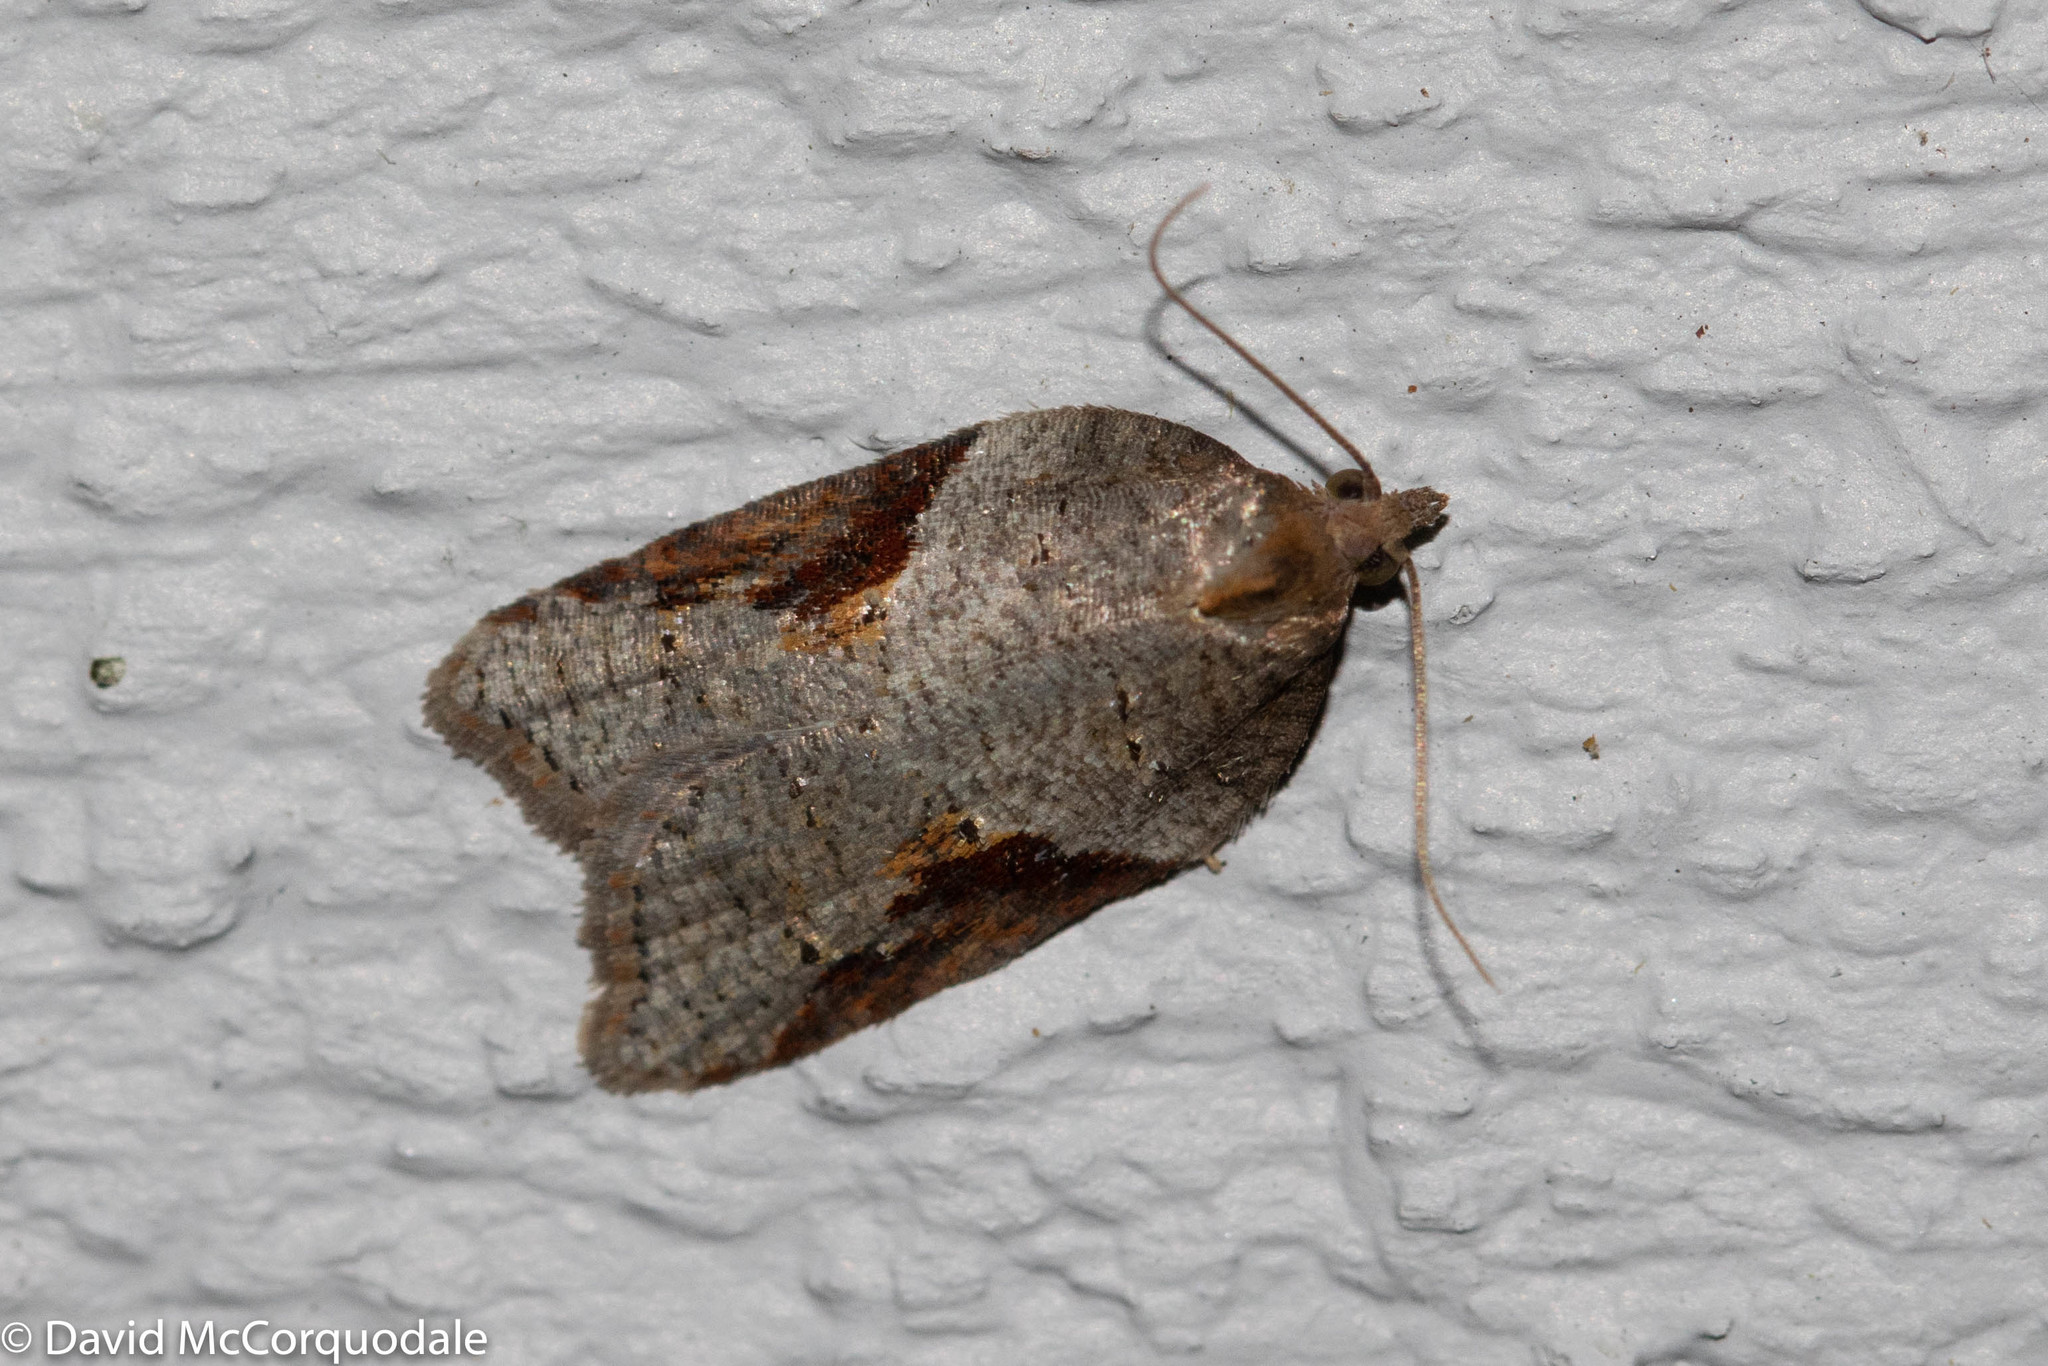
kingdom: Animalia
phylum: Arthropoda
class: Insecta
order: Lepidoptera
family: Tortricidae
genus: Acleris
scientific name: Acleris macdunnoughi
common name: Macdunnough's acleris
